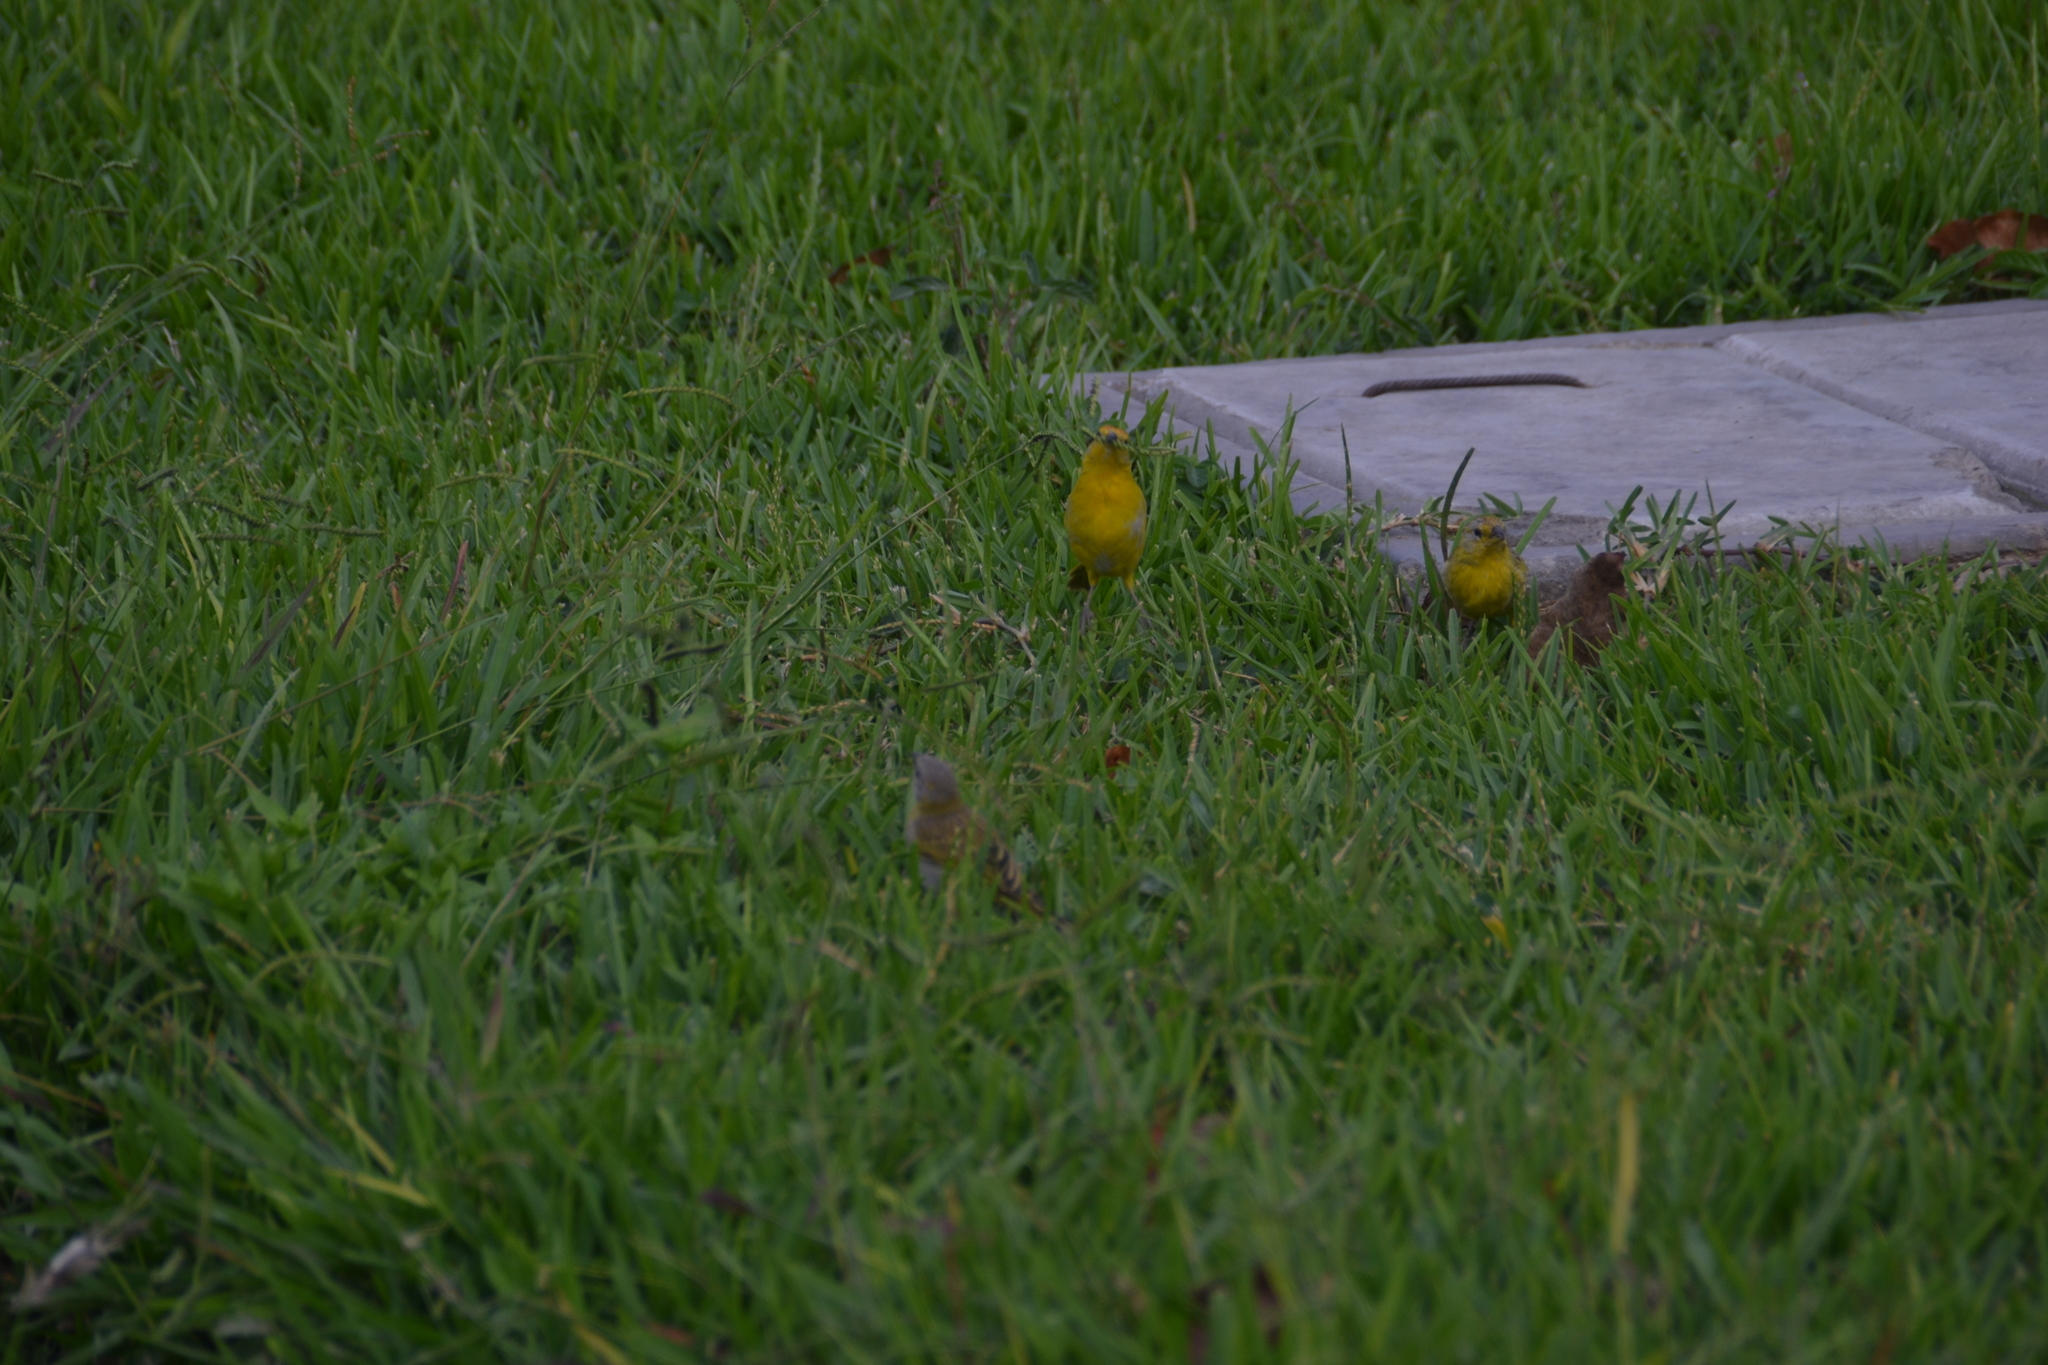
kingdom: Animalia
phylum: Chordata
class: Aves
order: Passeriformes
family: Thraupidae
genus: Sicalis
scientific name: Sicalis flaveola
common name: Saffron finch
